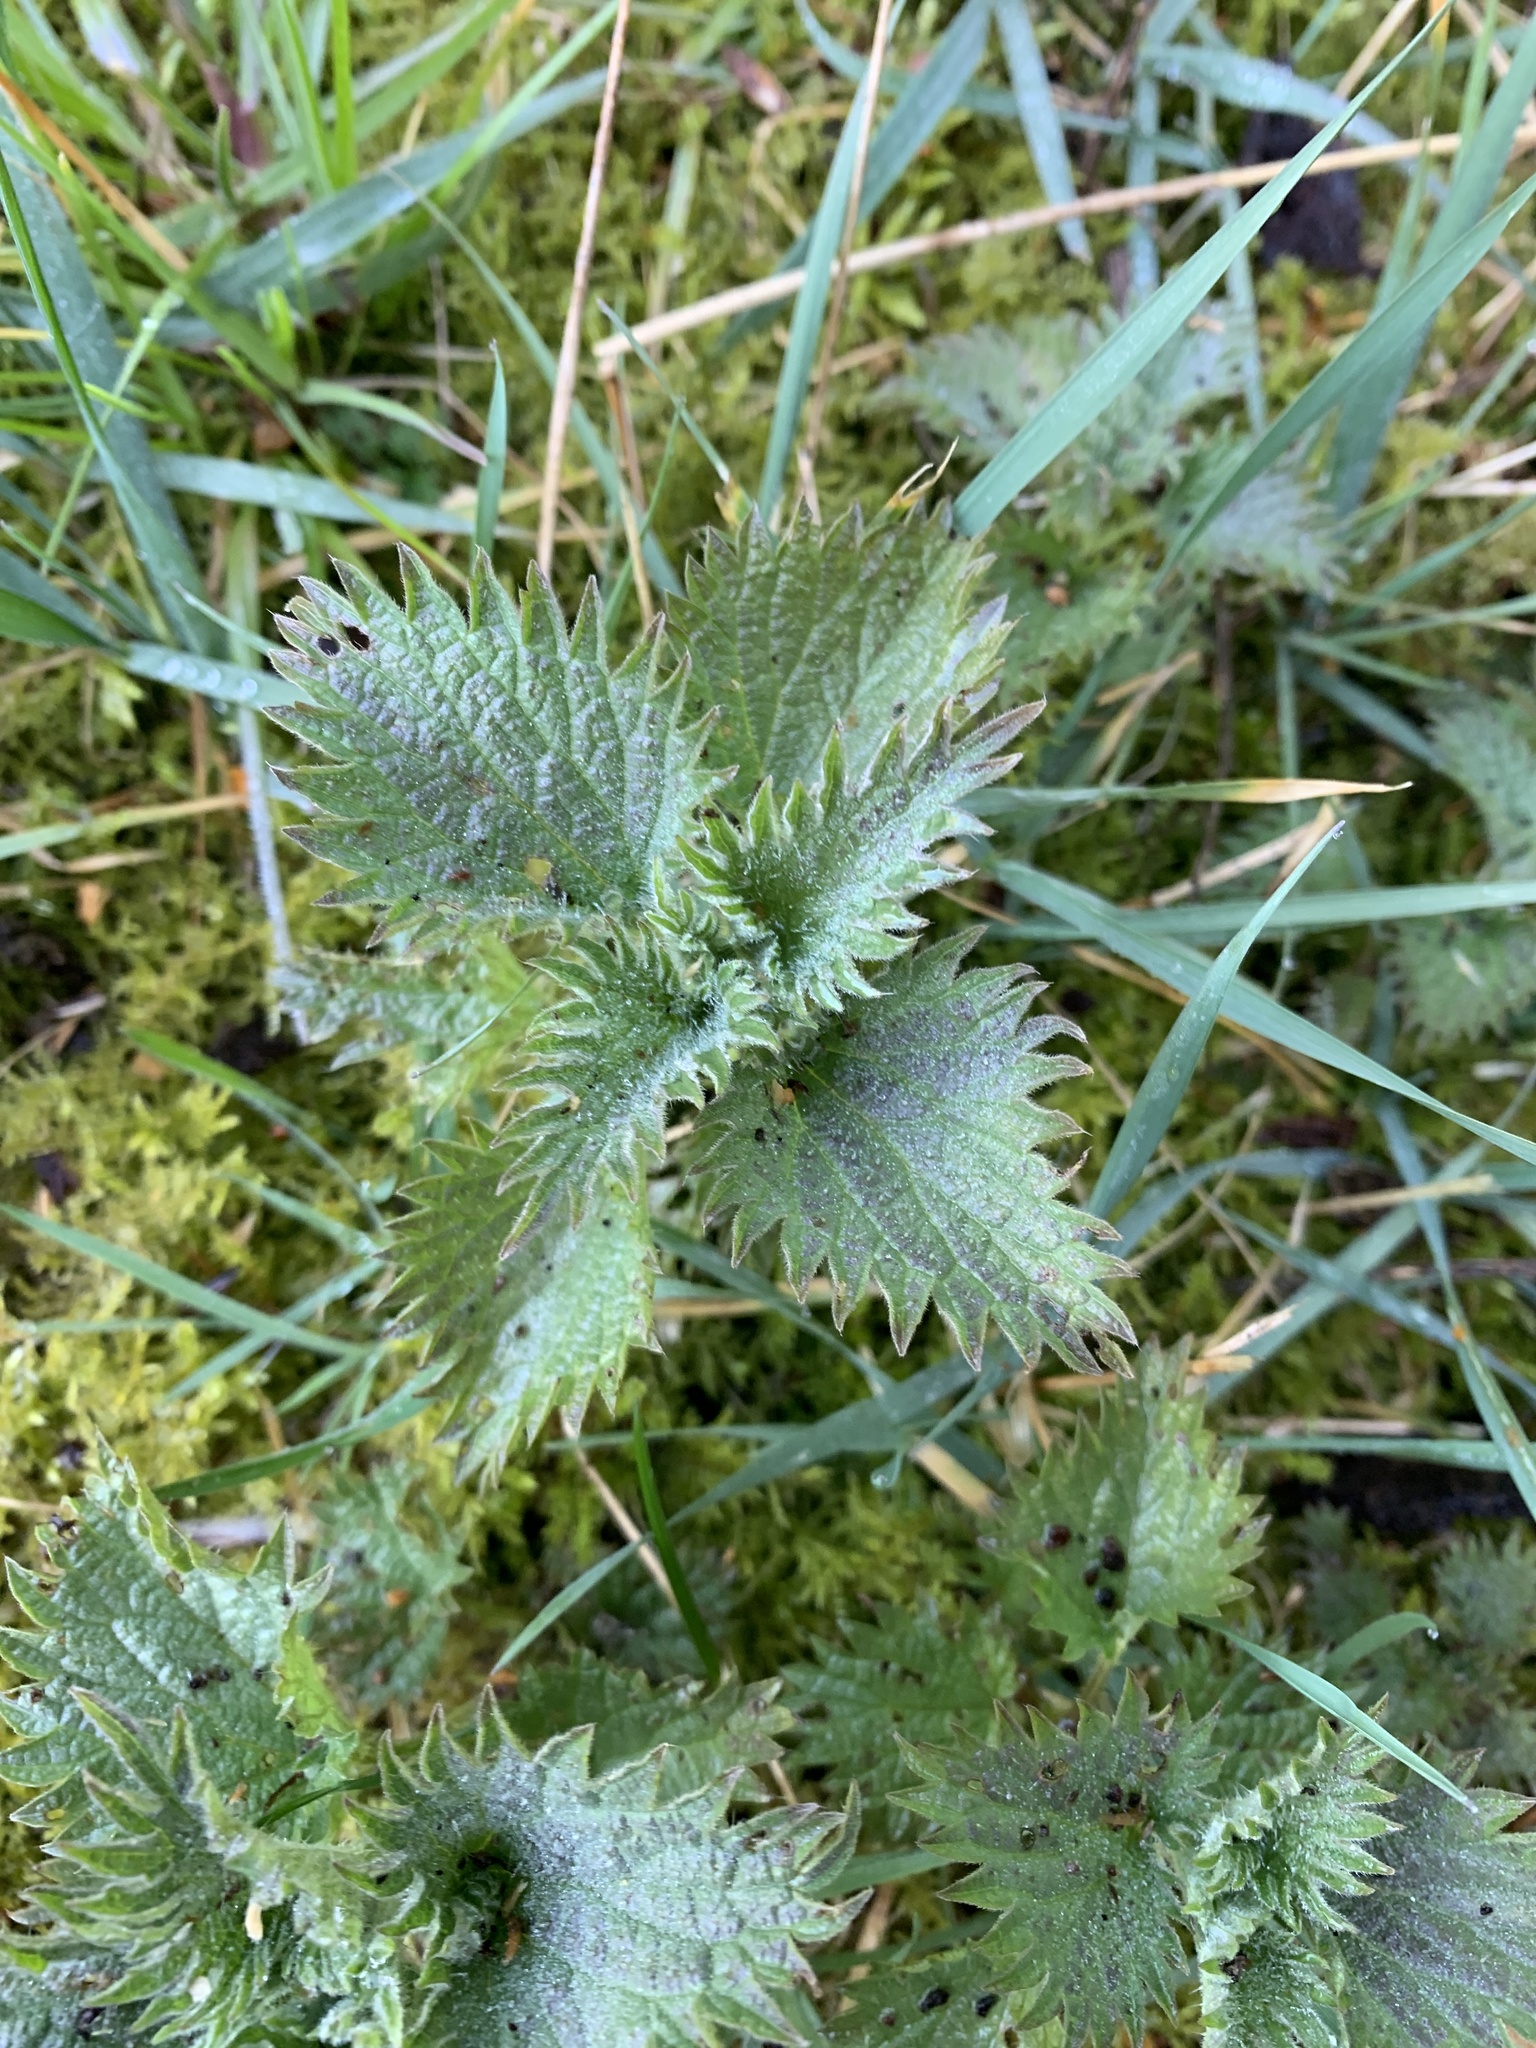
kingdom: Plantae
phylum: Tracheophyta
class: Magnoliopsida
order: Rosales
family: Urticaceae
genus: Urtica
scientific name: Urtica dioica
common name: Common nettle
